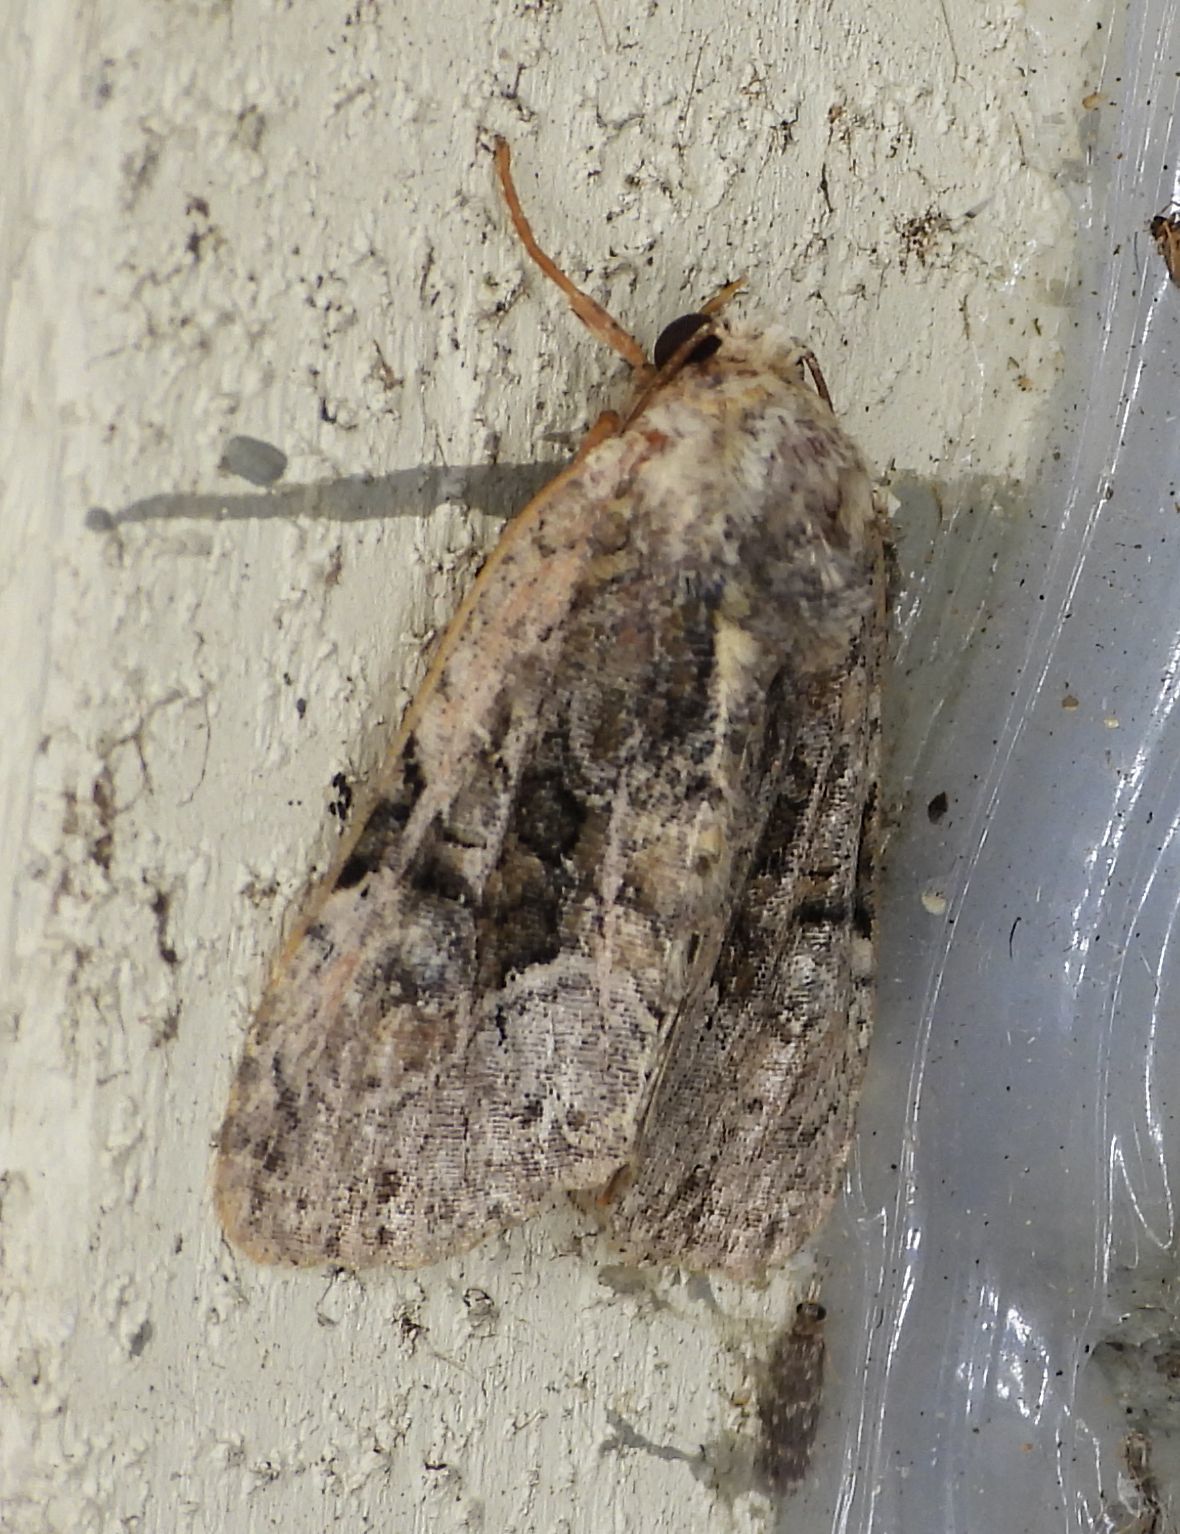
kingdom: Animalia
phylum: Arthropoda
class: Insecta
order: Lepidoptera
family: Noctuidae
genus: Oligia
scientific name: Oligia modica
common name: Black-banded brocade
